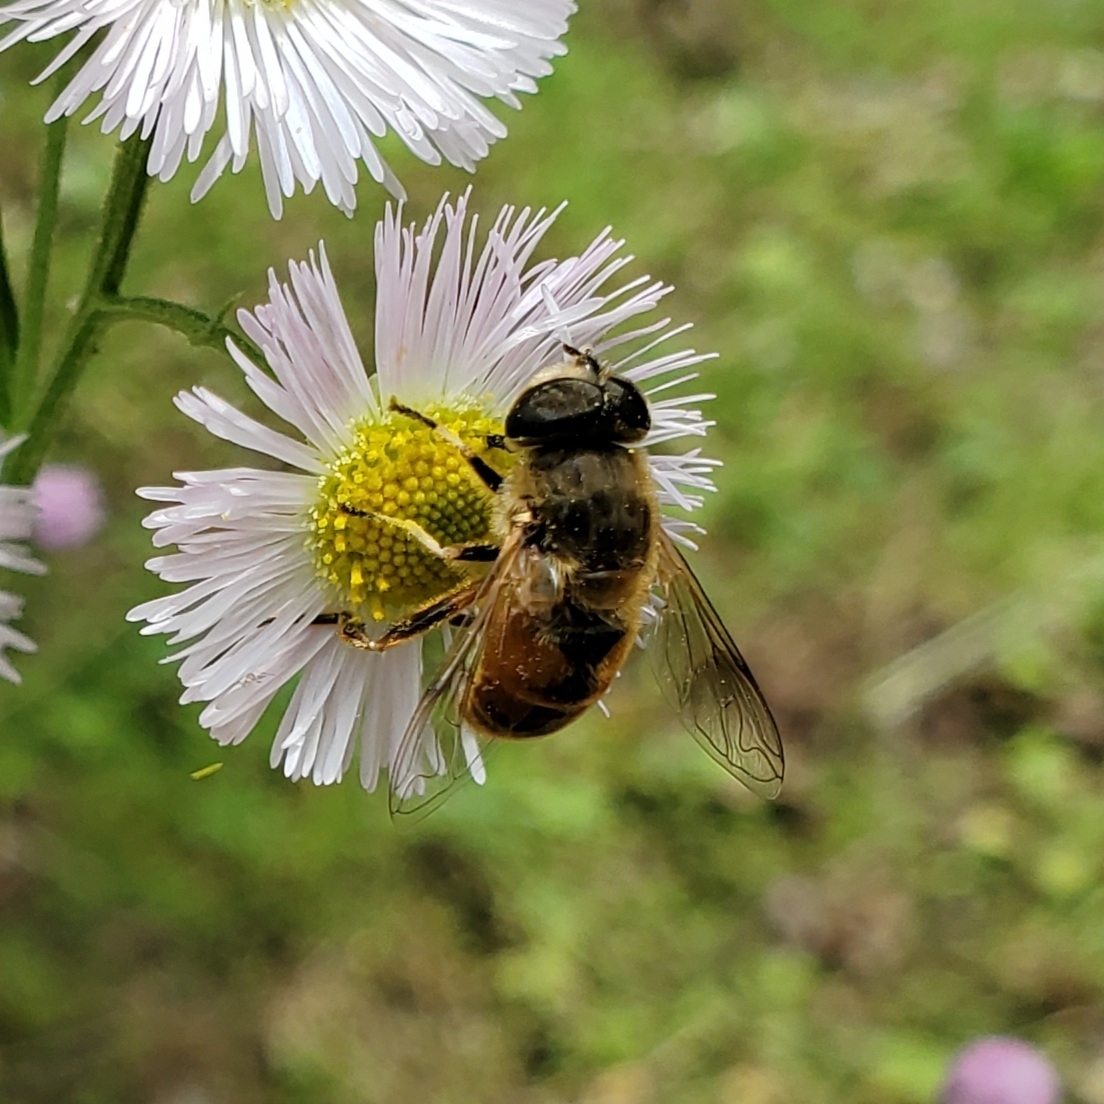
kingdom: Animalia
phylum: Arthropoda
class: Insecta
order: Diptera
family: Syrphidae
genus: Eristalis
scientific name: Eristalis tenax
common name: Drone fly
